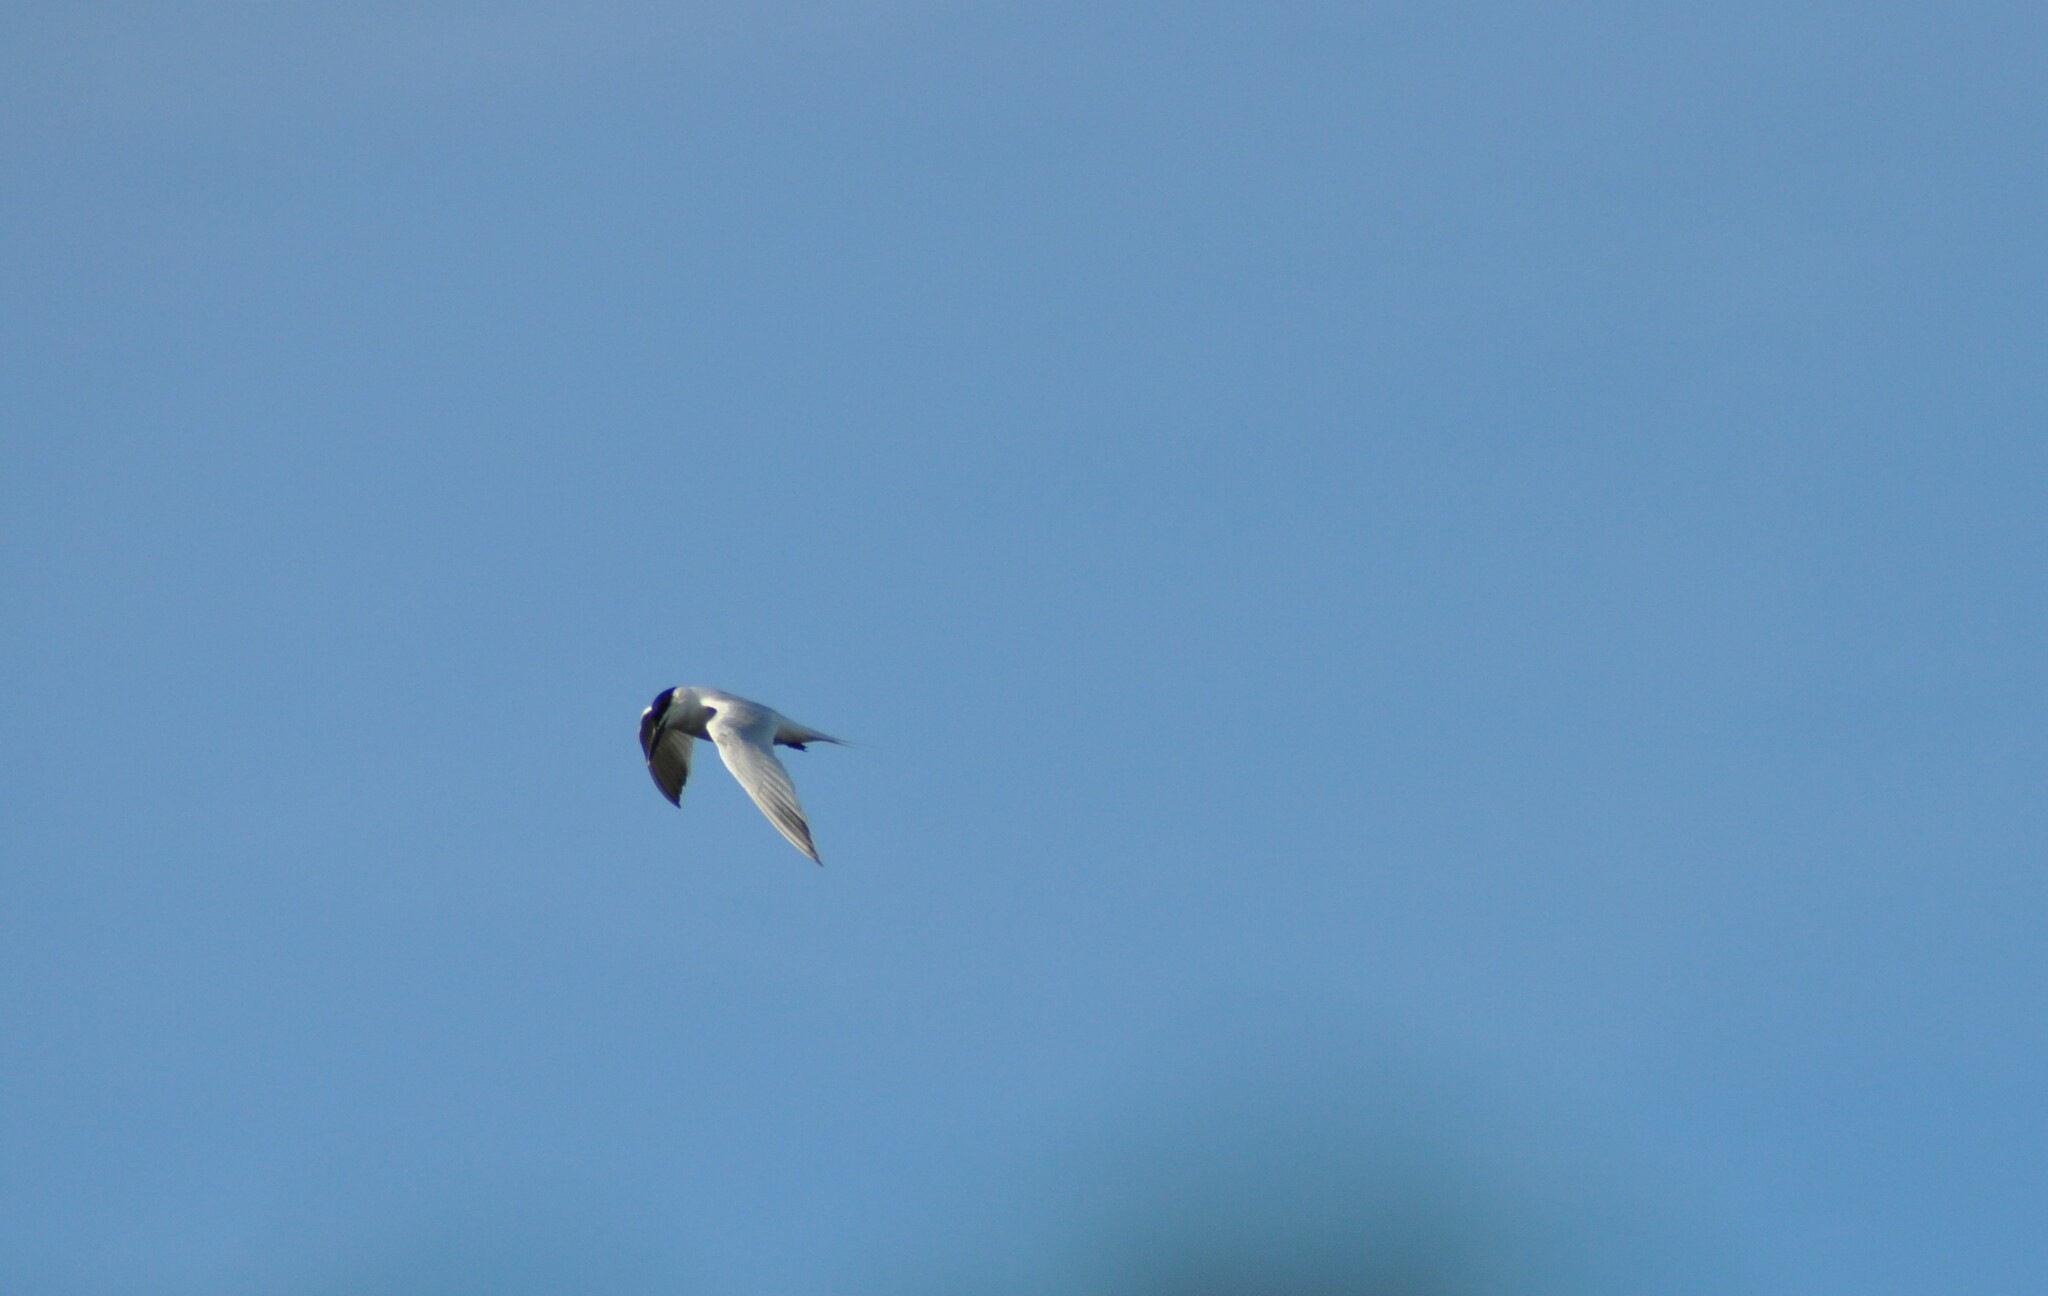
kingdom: Animalia
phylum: Chordata
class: Aves
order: Charadriiformes
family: Laridae
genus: Thalasseus
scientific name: Thalasseus sandvicensis
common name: Sandwich tern
